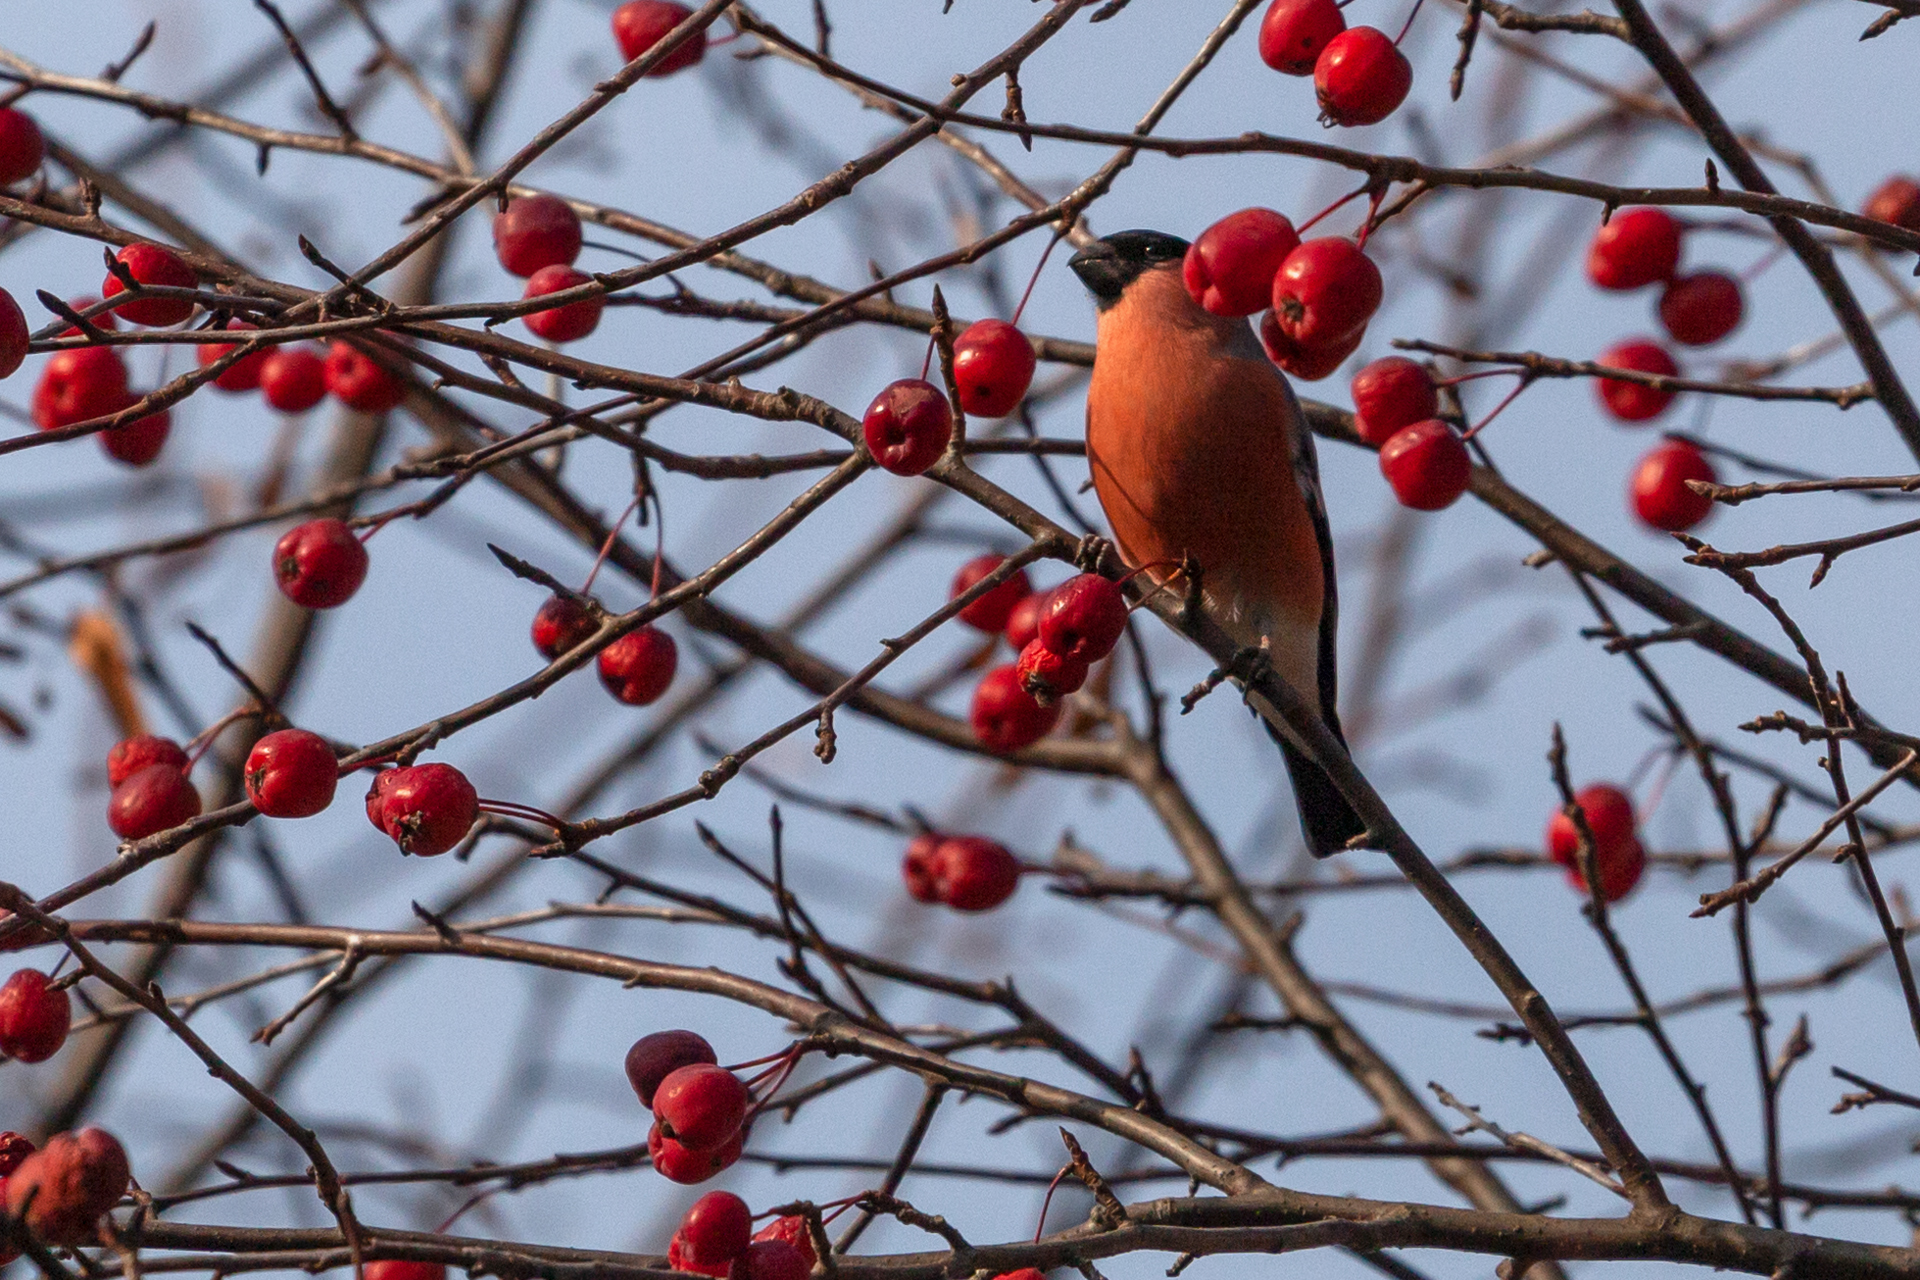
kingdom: Animalia
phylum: Chordata
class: Aves
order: Passeriformes
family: Fringillidae
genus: Pyrrhula
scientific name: Pyrrhula pyrrhula
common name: Eurasian bullfinch
